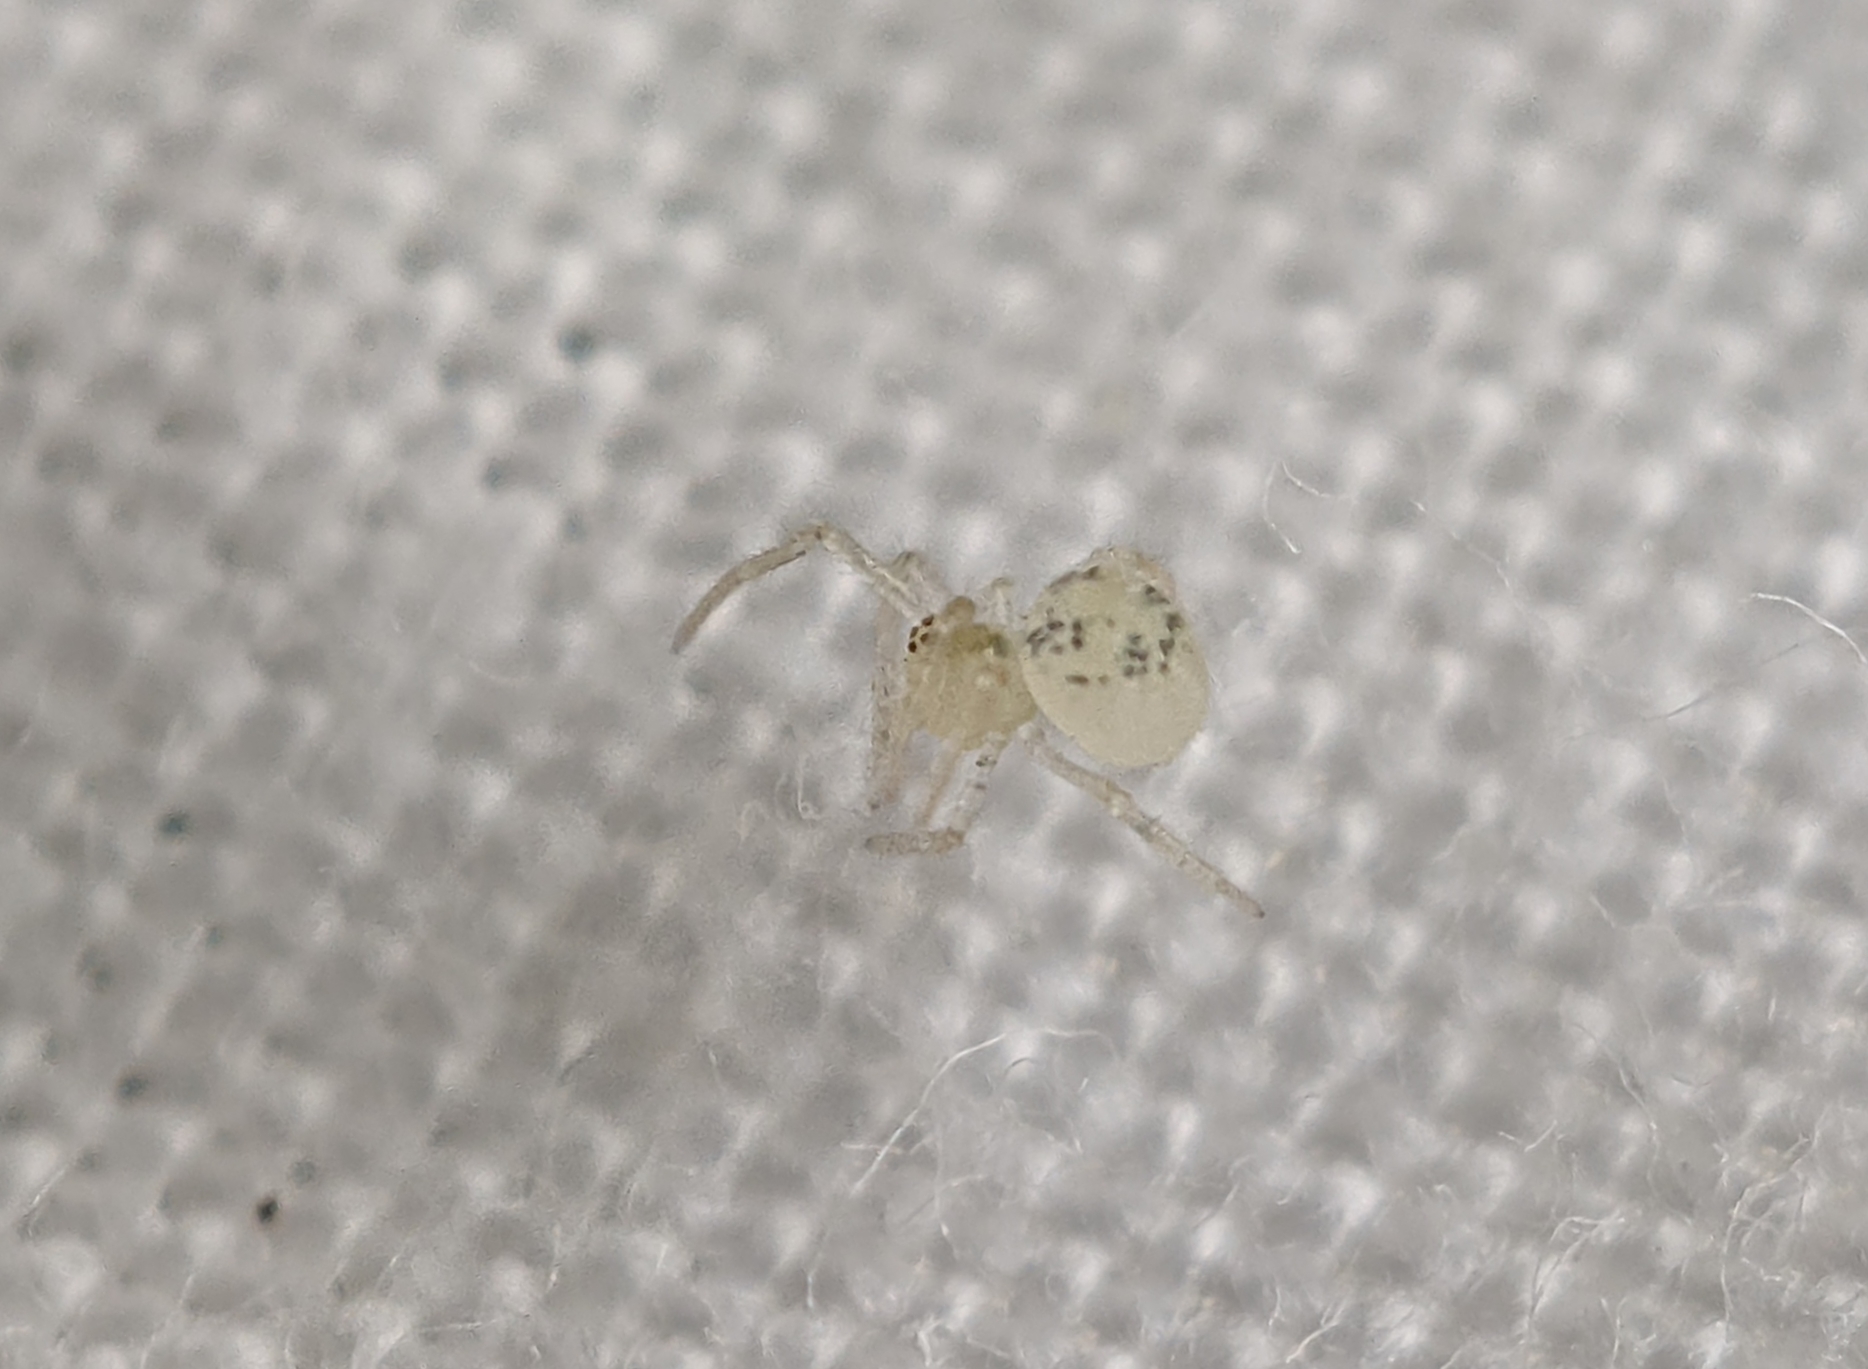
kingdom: Animalia
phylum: Arthropoda
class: Arachnida
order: Araneae
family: Theridiidae
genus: Paidiscura
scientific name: Paidiscura pallens
